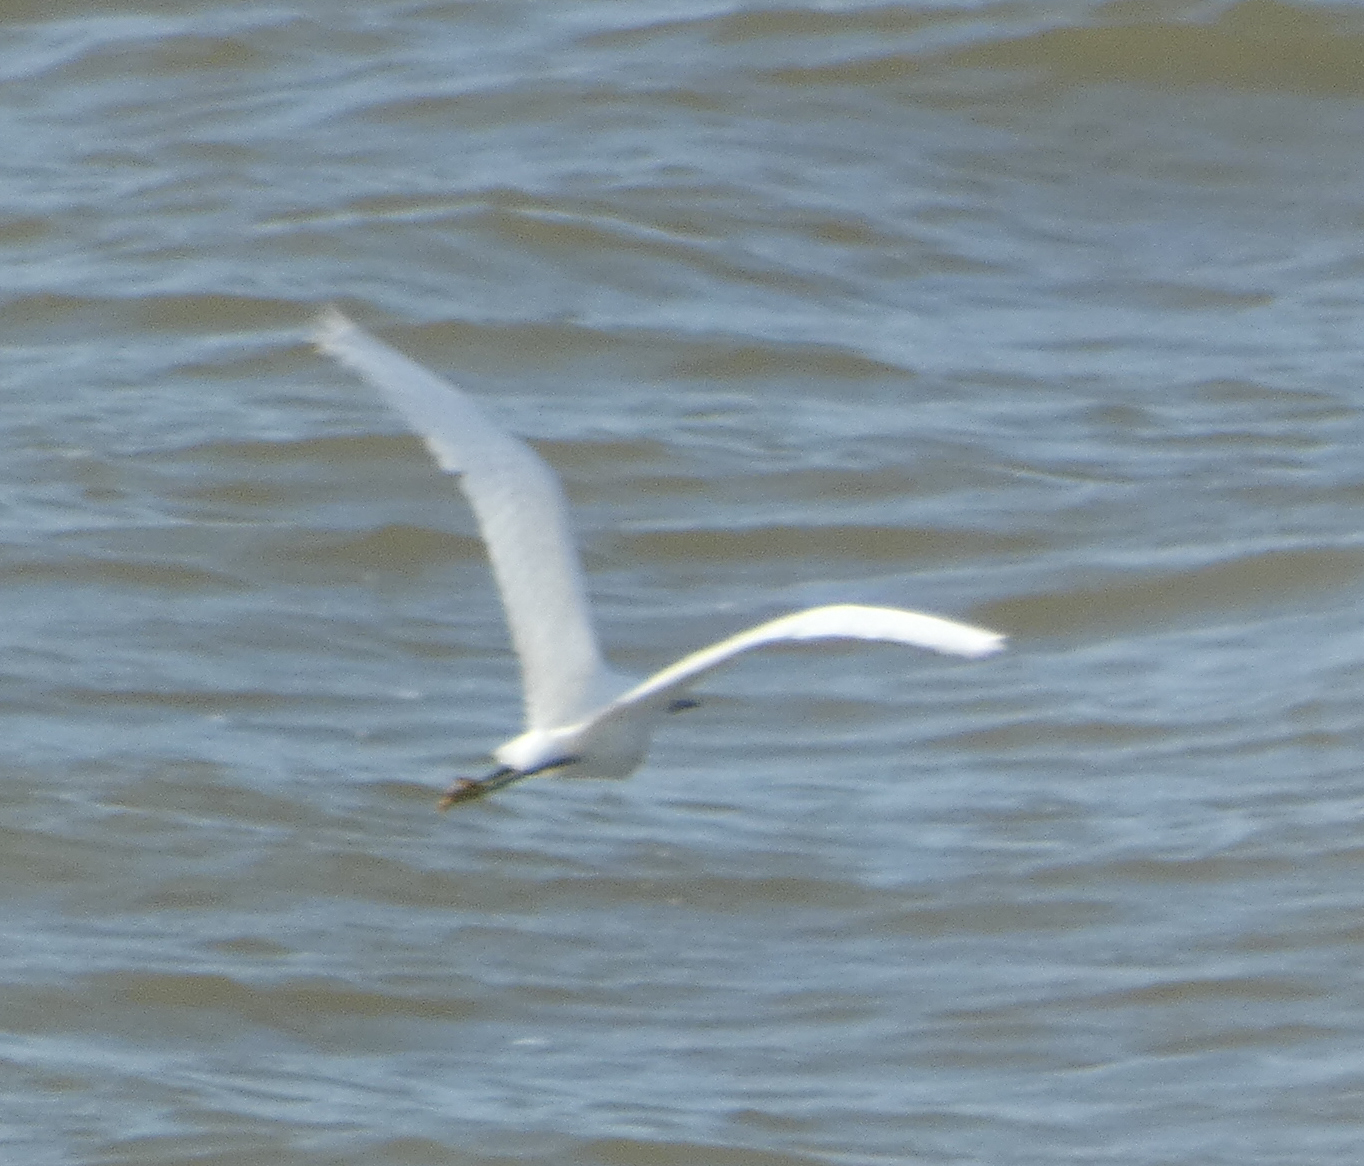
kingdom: Animalia
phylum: Chordata
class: Aves
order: Pelecaniformes
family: Ardeidae
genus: Egretta
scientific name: Egretta thula
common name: Snowy egret
